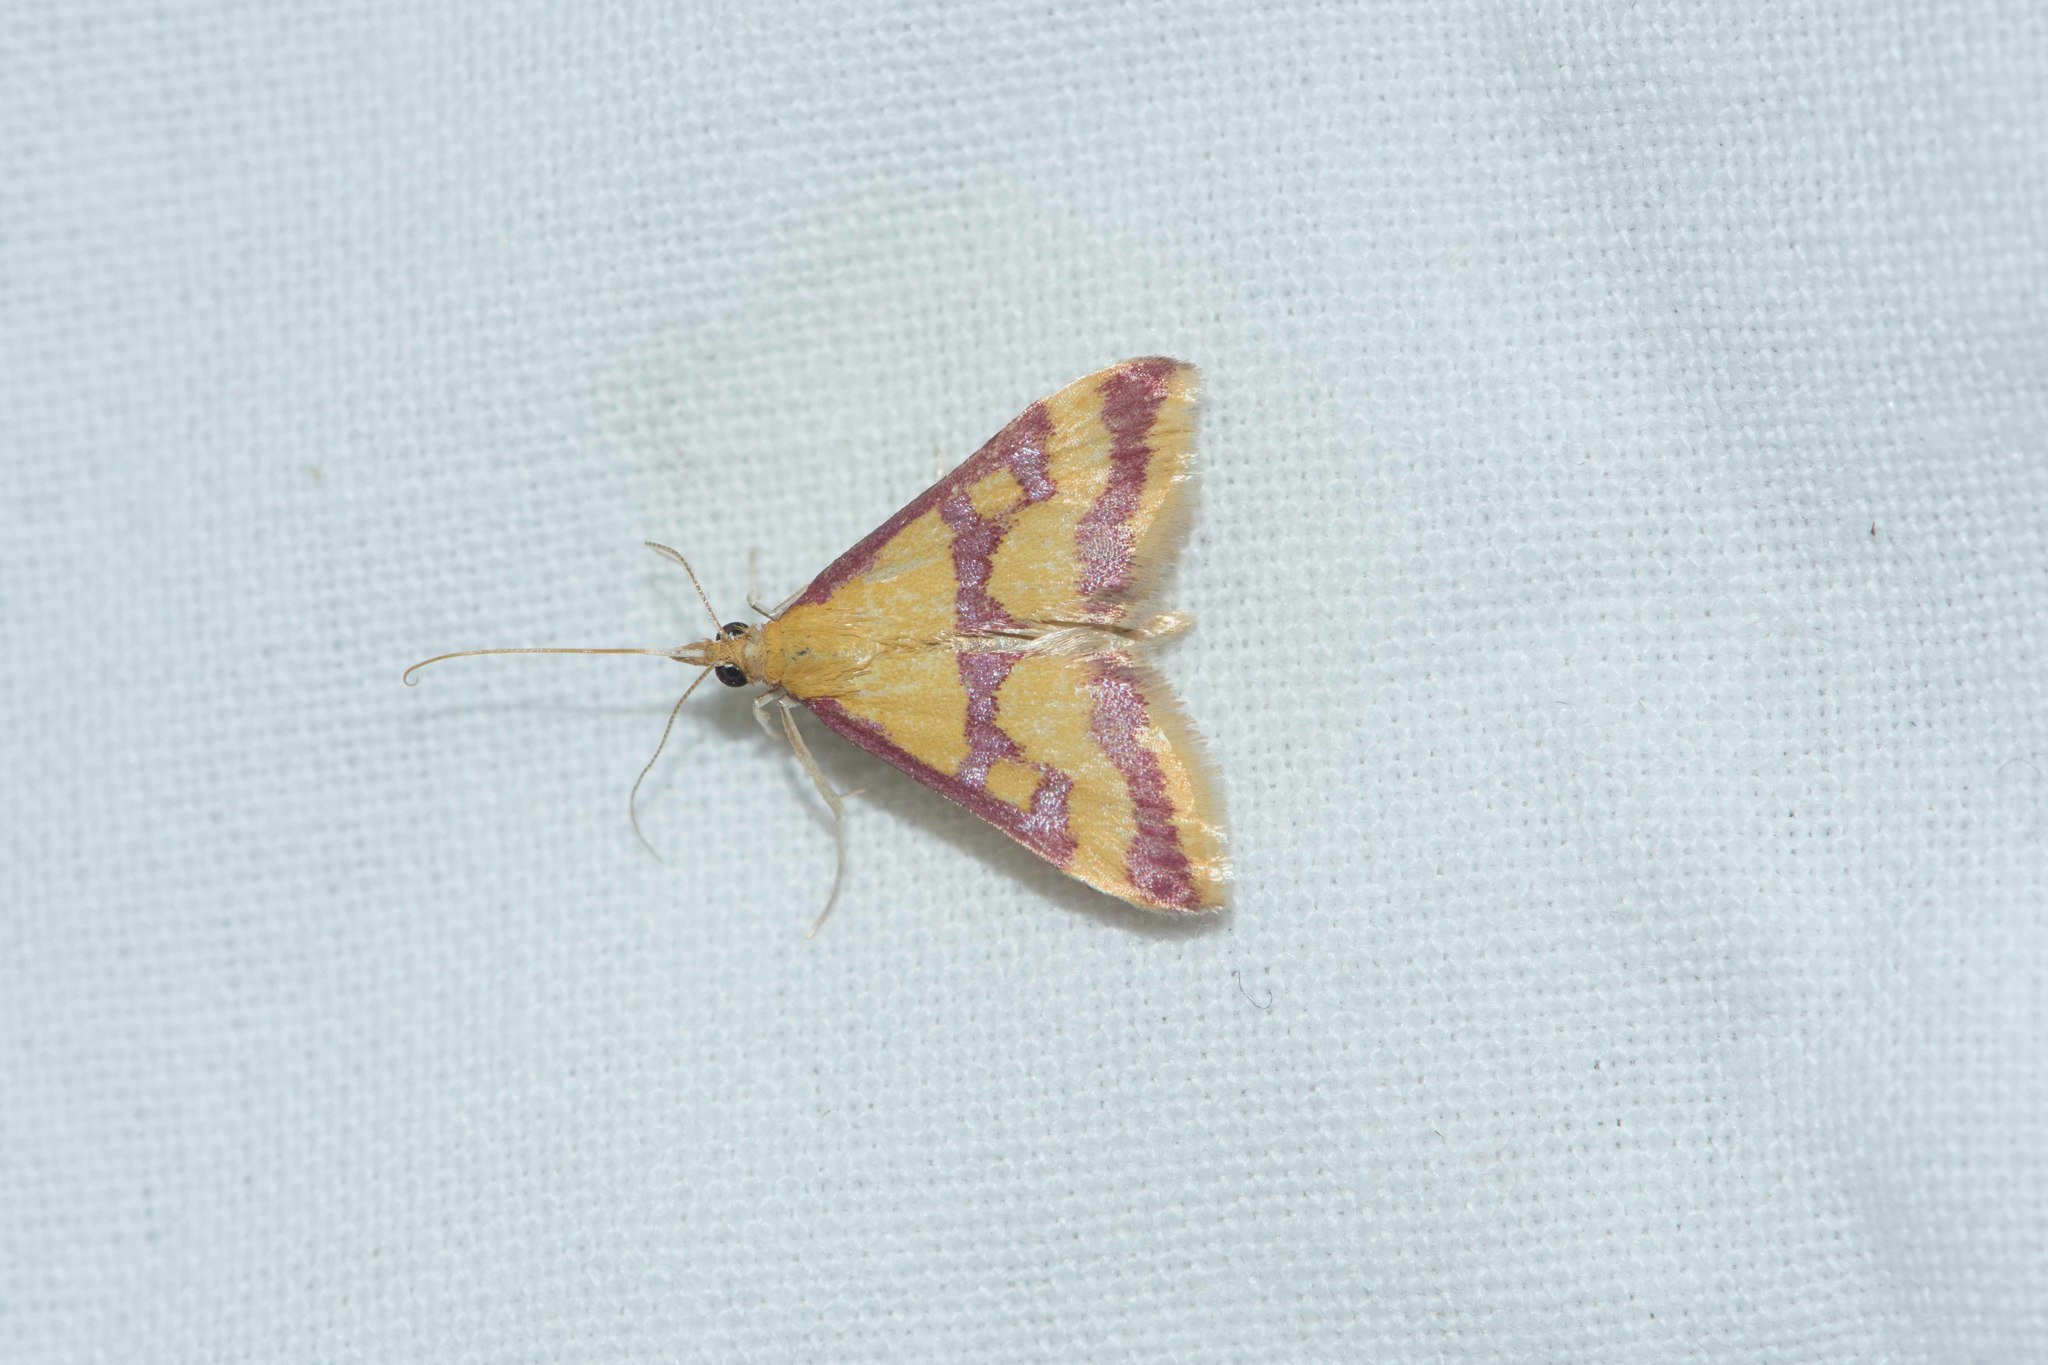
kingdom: Animalia
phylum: Arthropoda
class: Insecta
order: Lepidoptera
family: Crambidae
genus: Pyrausta
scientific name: Pyrausta sanguinalis
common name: Scarce crimson and gold
